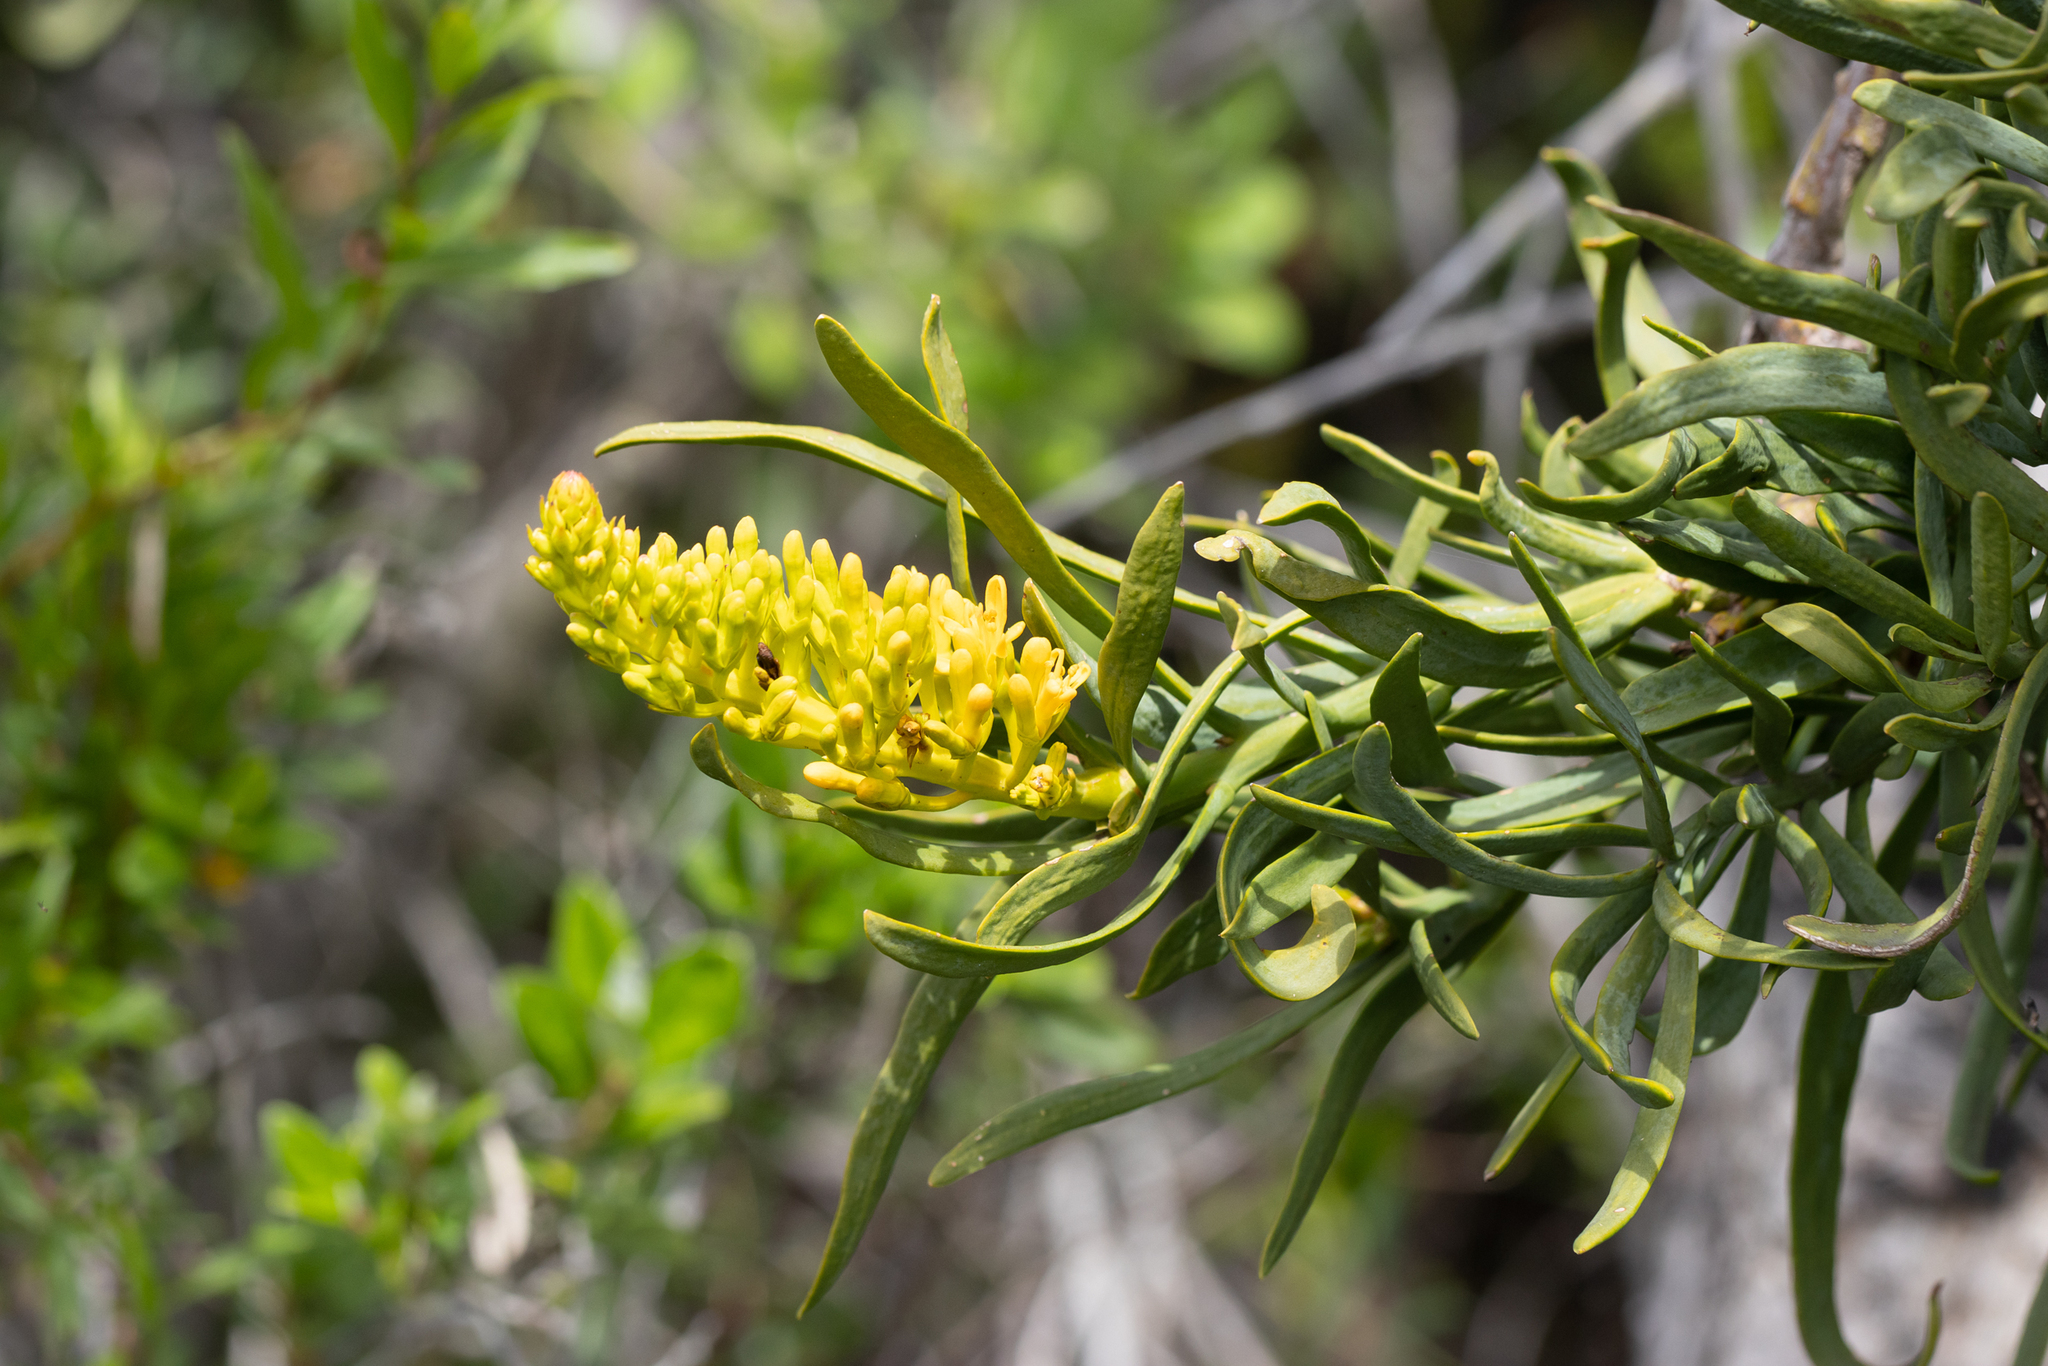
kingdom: Plantae
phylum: Tracheophyta
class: Magnoliopsida
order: Santalales
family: Loranthaceae
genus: Nuytsia
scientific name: Nuytsia floribunda
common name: Western australian christmastree
